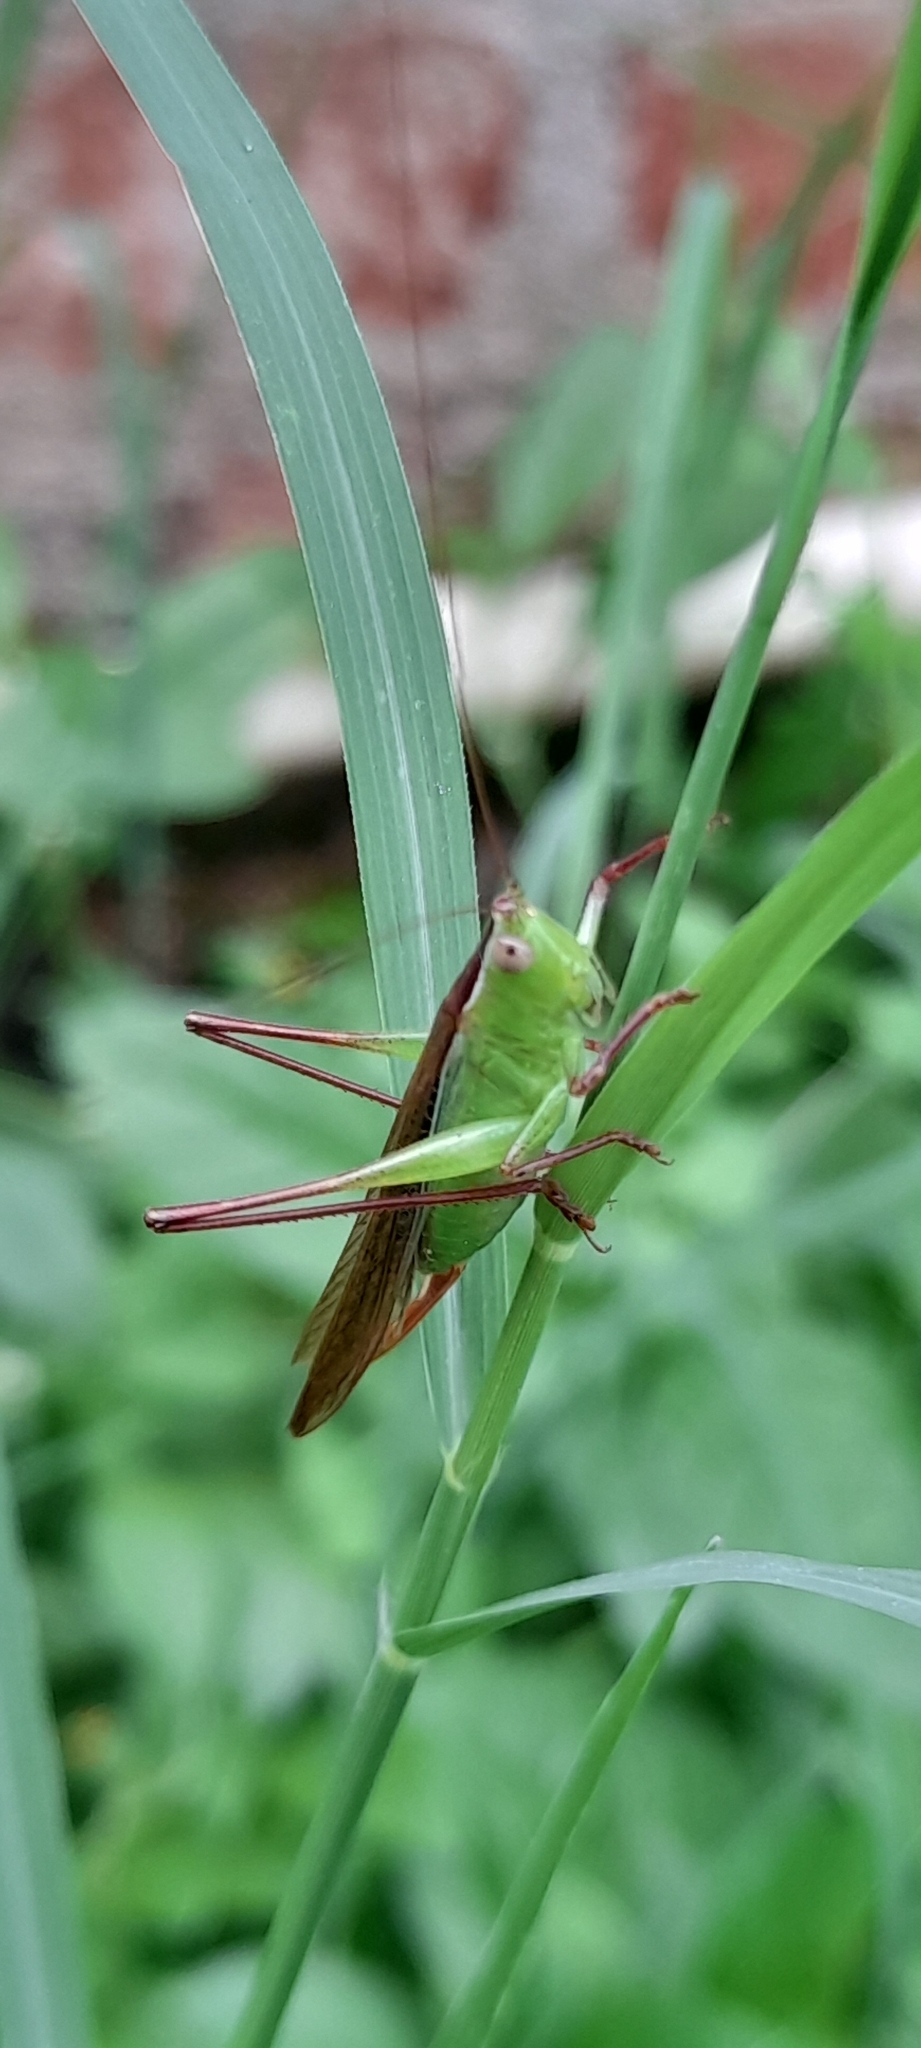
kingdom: Animalia
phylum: Arthropoda
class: Insecta
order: Orthoptera
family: Tettigoniidae
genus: Conocephalus
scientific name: Conocephalus maculatus
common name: Spotted meadow katydid
